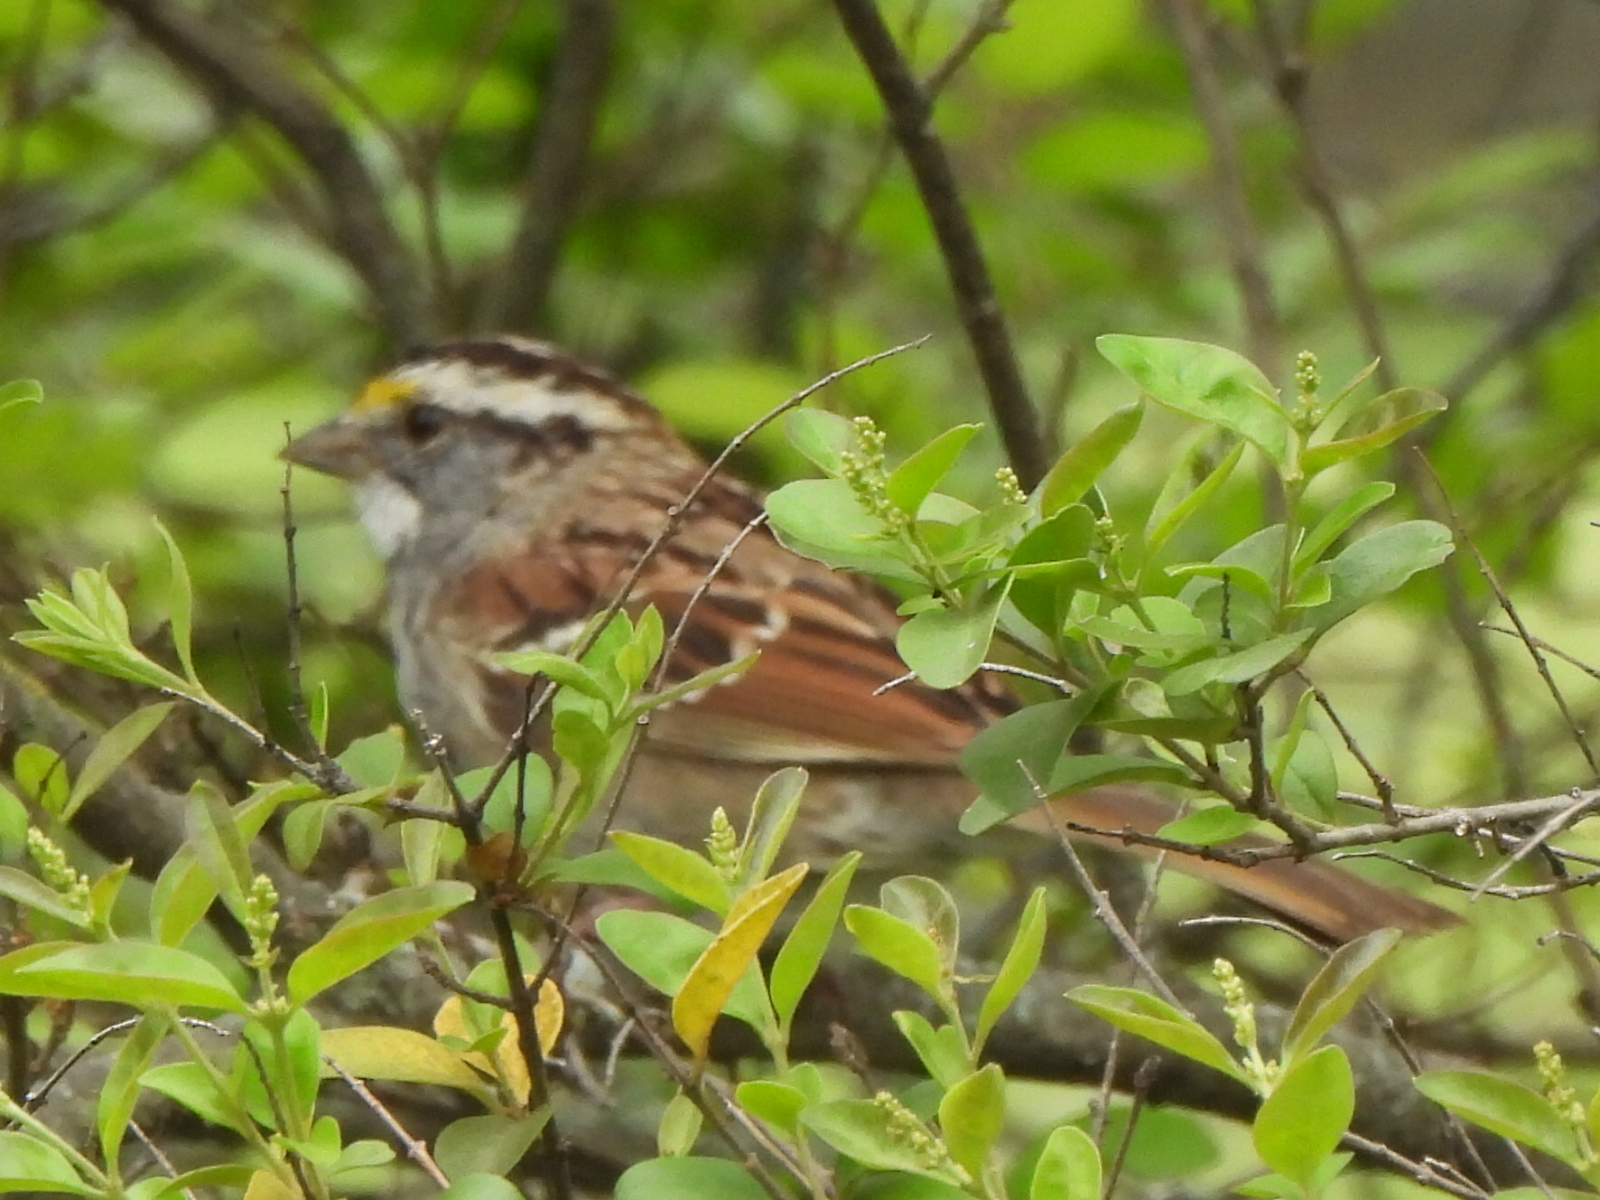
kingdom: Animalia
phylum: Chordata
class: Aves
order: Passeriformes
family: Passerellidae
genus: Zonotrichia
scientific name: Zonotrichia albicollis
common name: White-throated sparrow
